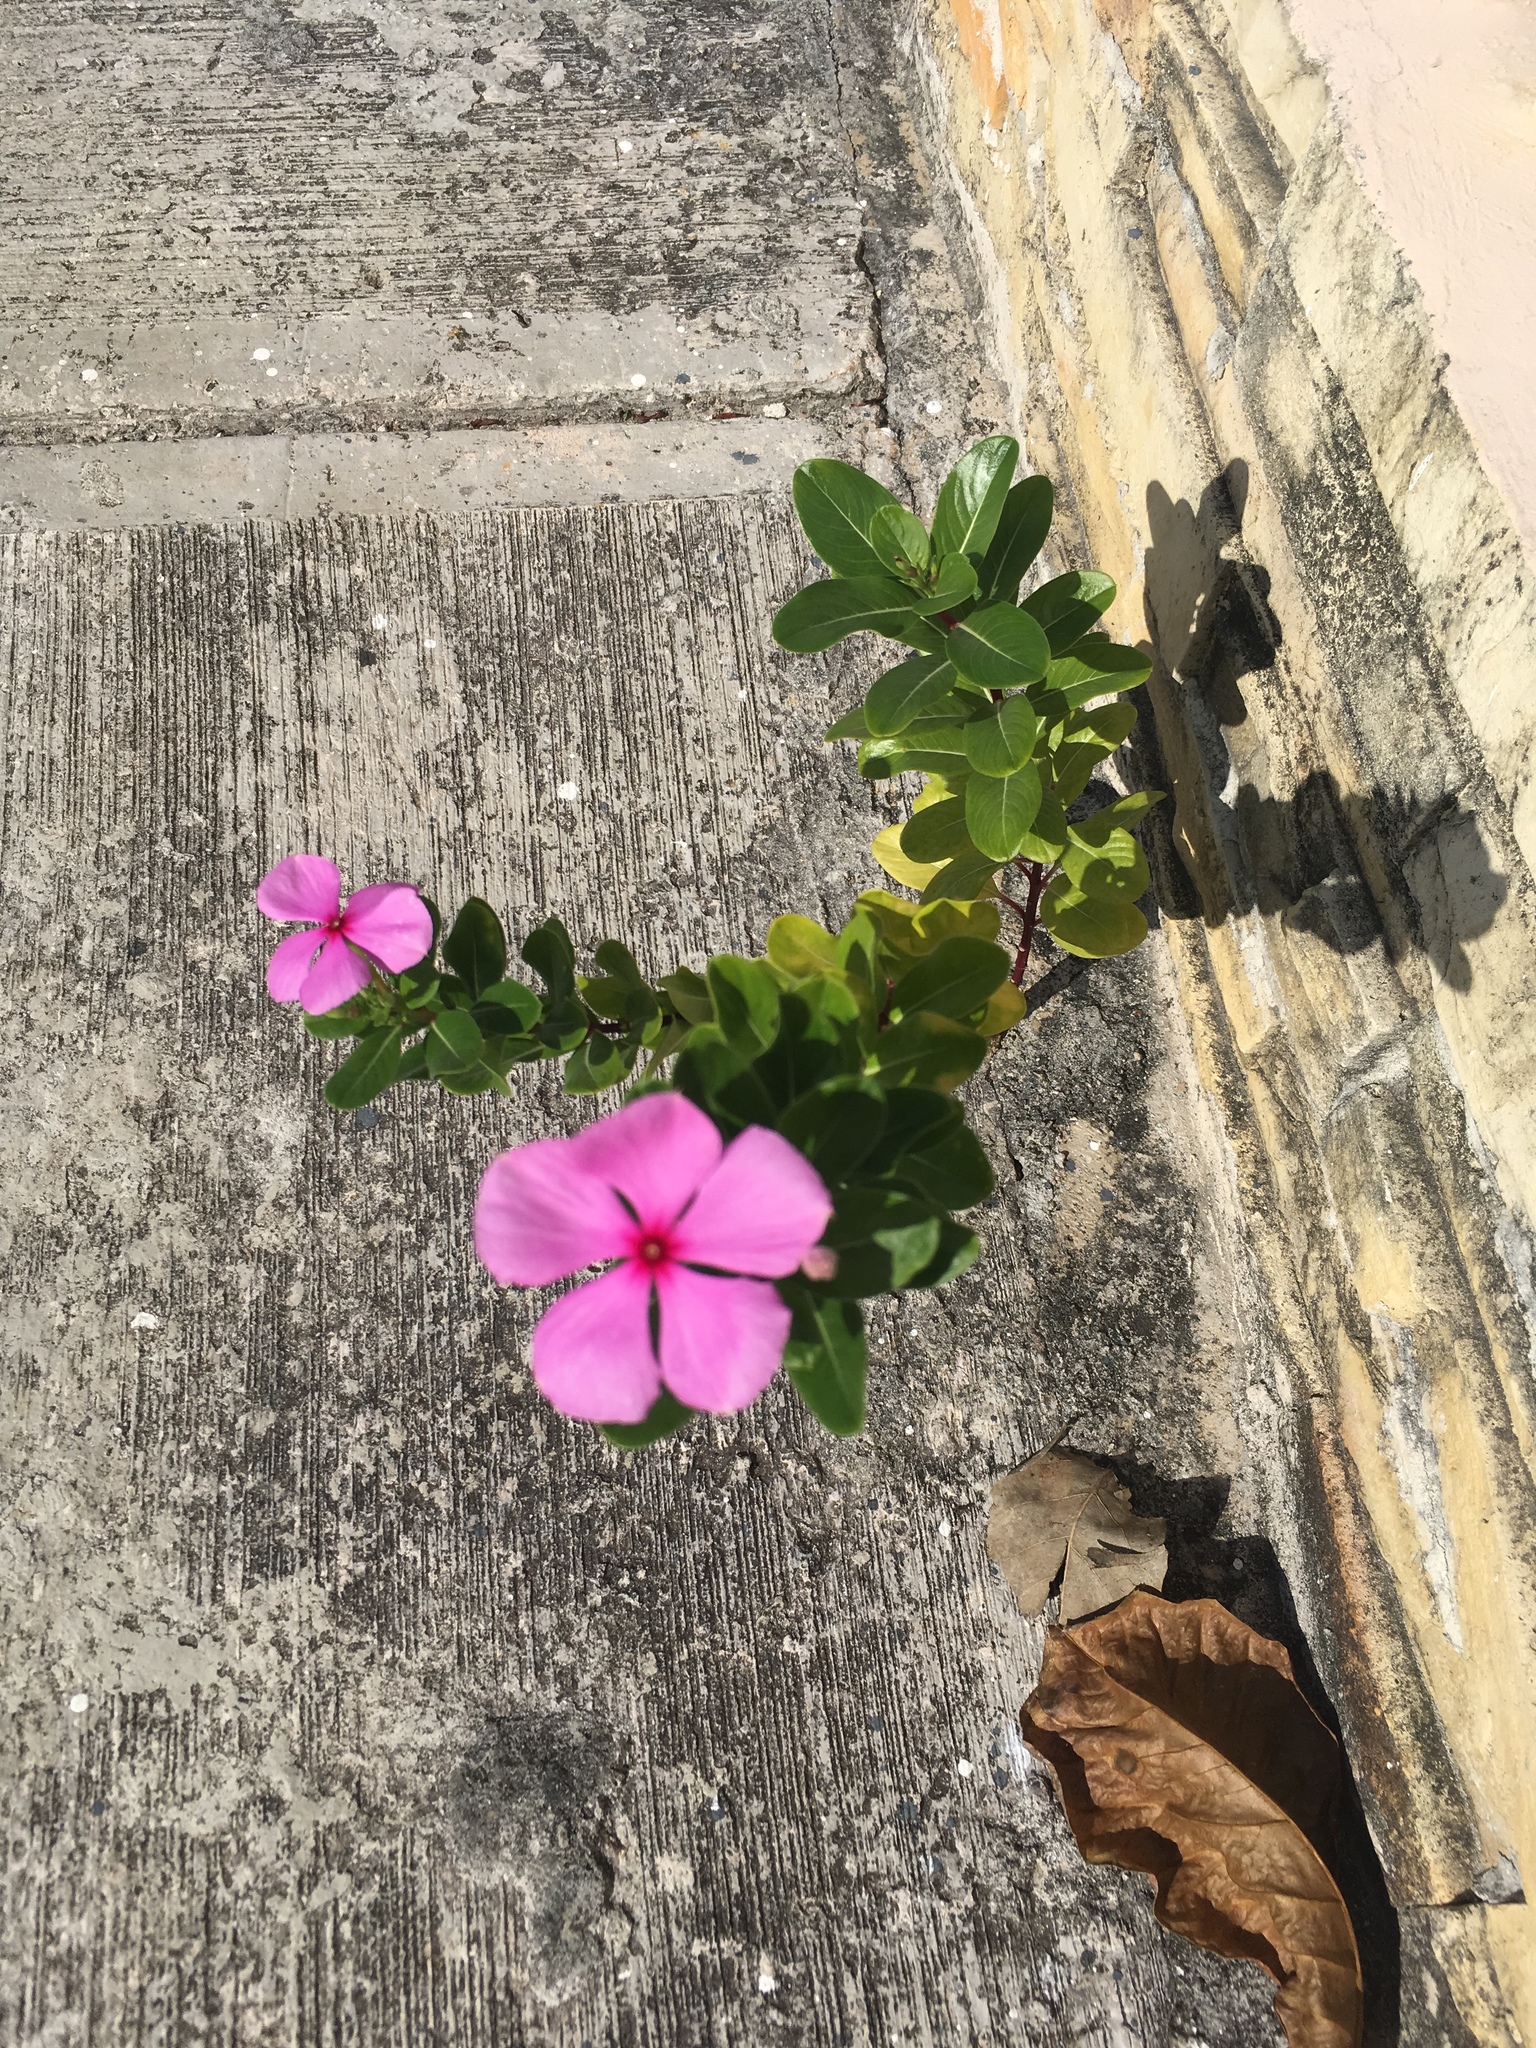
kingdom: Plantae
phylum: Tracheophyta
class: Magnoliopsida
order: Gentianales
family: Apocynaceae
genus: Catharanthus
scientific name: Catharanthus roseus
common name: Madagascar periwinkle
